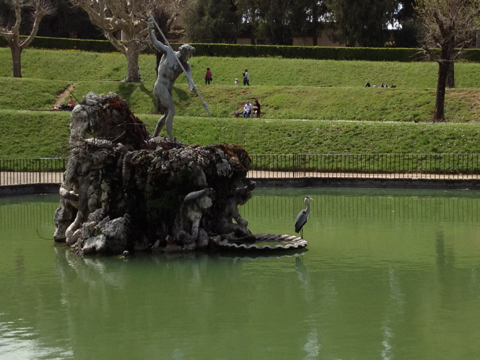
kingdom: Animalia
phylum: Chordata
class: Aves
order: Pelecaniformes
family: Ardeidae
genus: Ardea
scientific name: Ardea cinerea
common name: Grey heron
